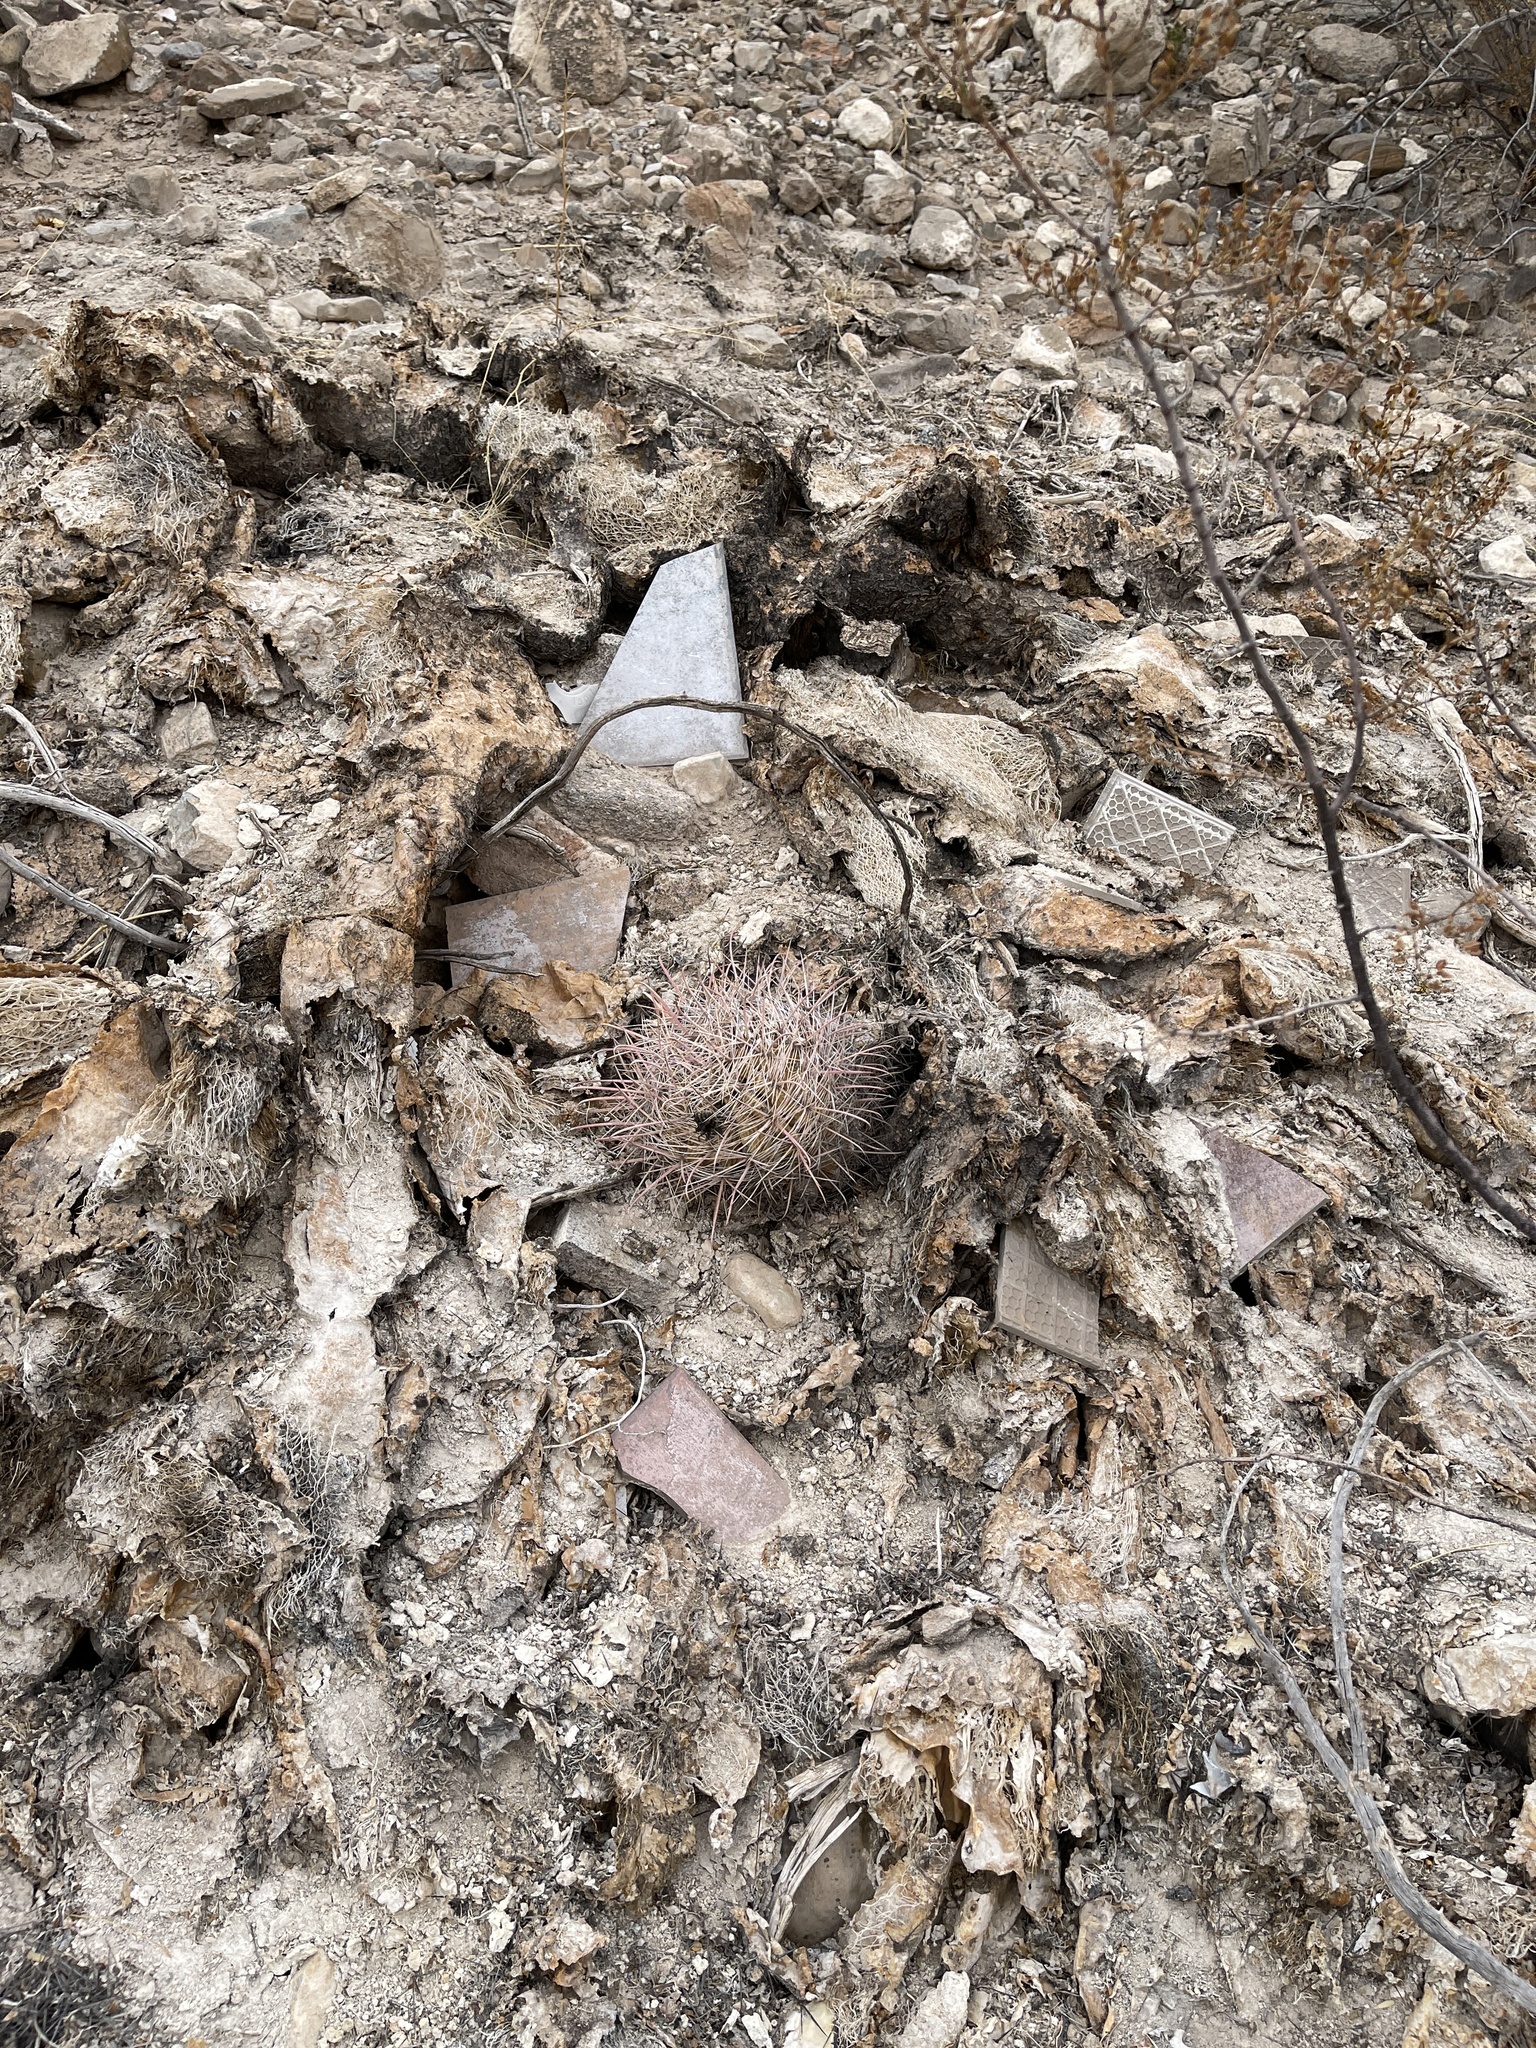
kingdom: Plantae
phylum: Tracheophyta
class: Magnoliopsida
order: Caryophyllales
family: Cactaceae
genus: Ferocactus
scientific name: Ferocactus wislizeni
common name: Candy barrel cactus
